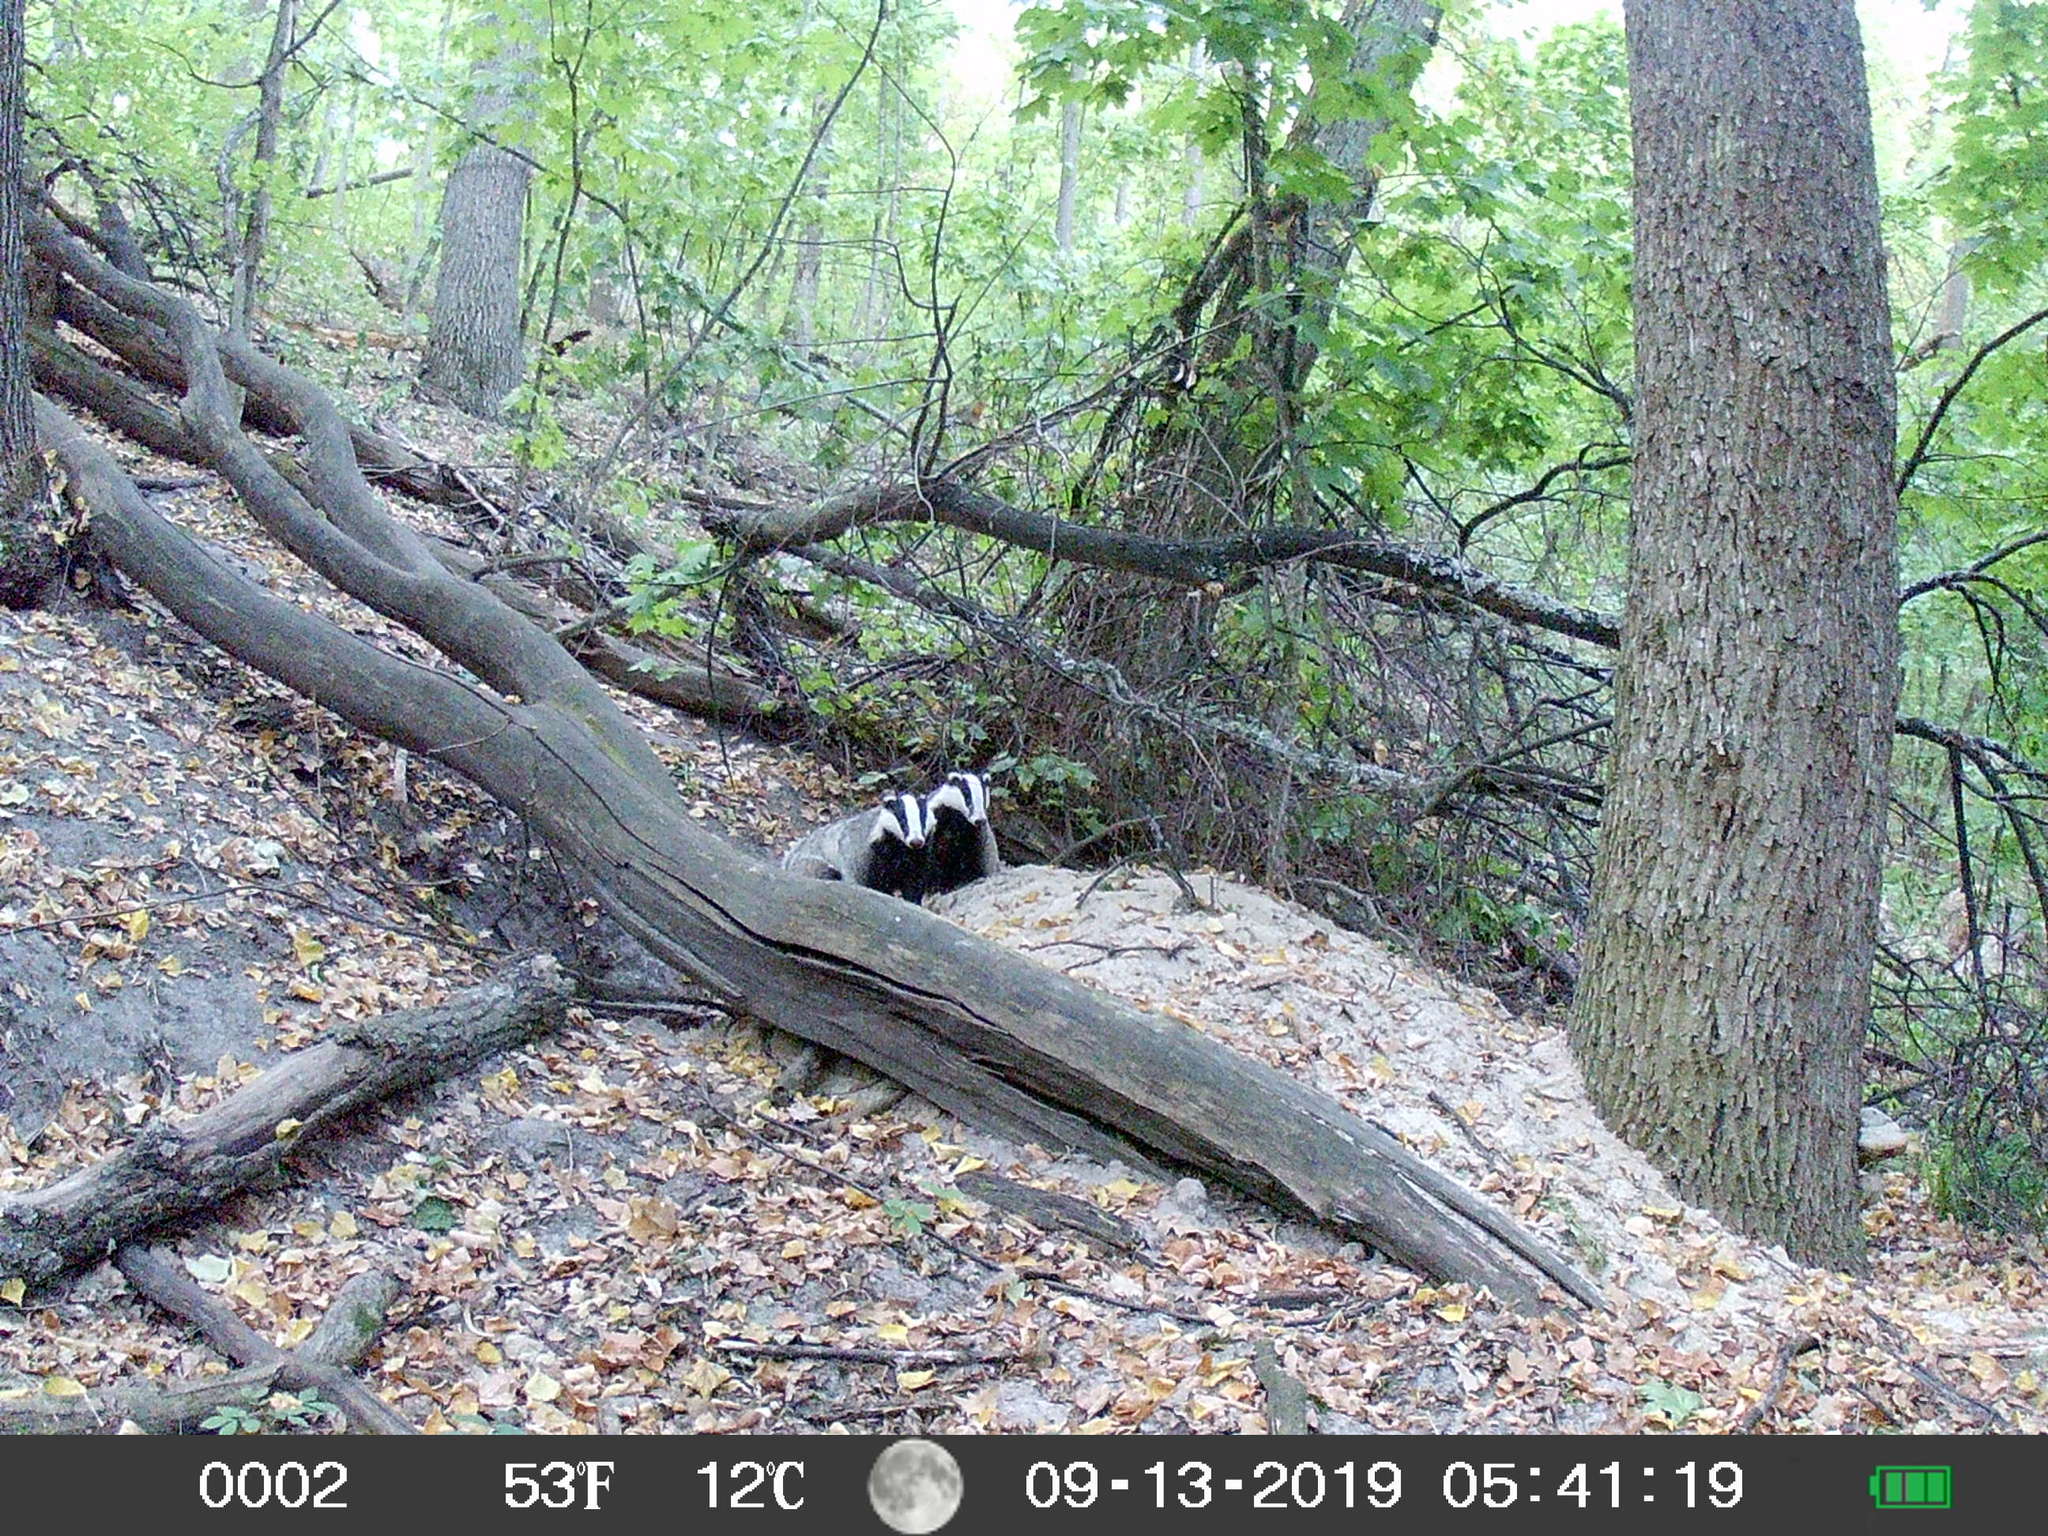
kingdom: Animalia
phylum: Chordata
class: Mammalia
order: Carnivora
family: Mustelidae
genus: Meles
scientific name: Meles meles
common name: Eurasian badger
